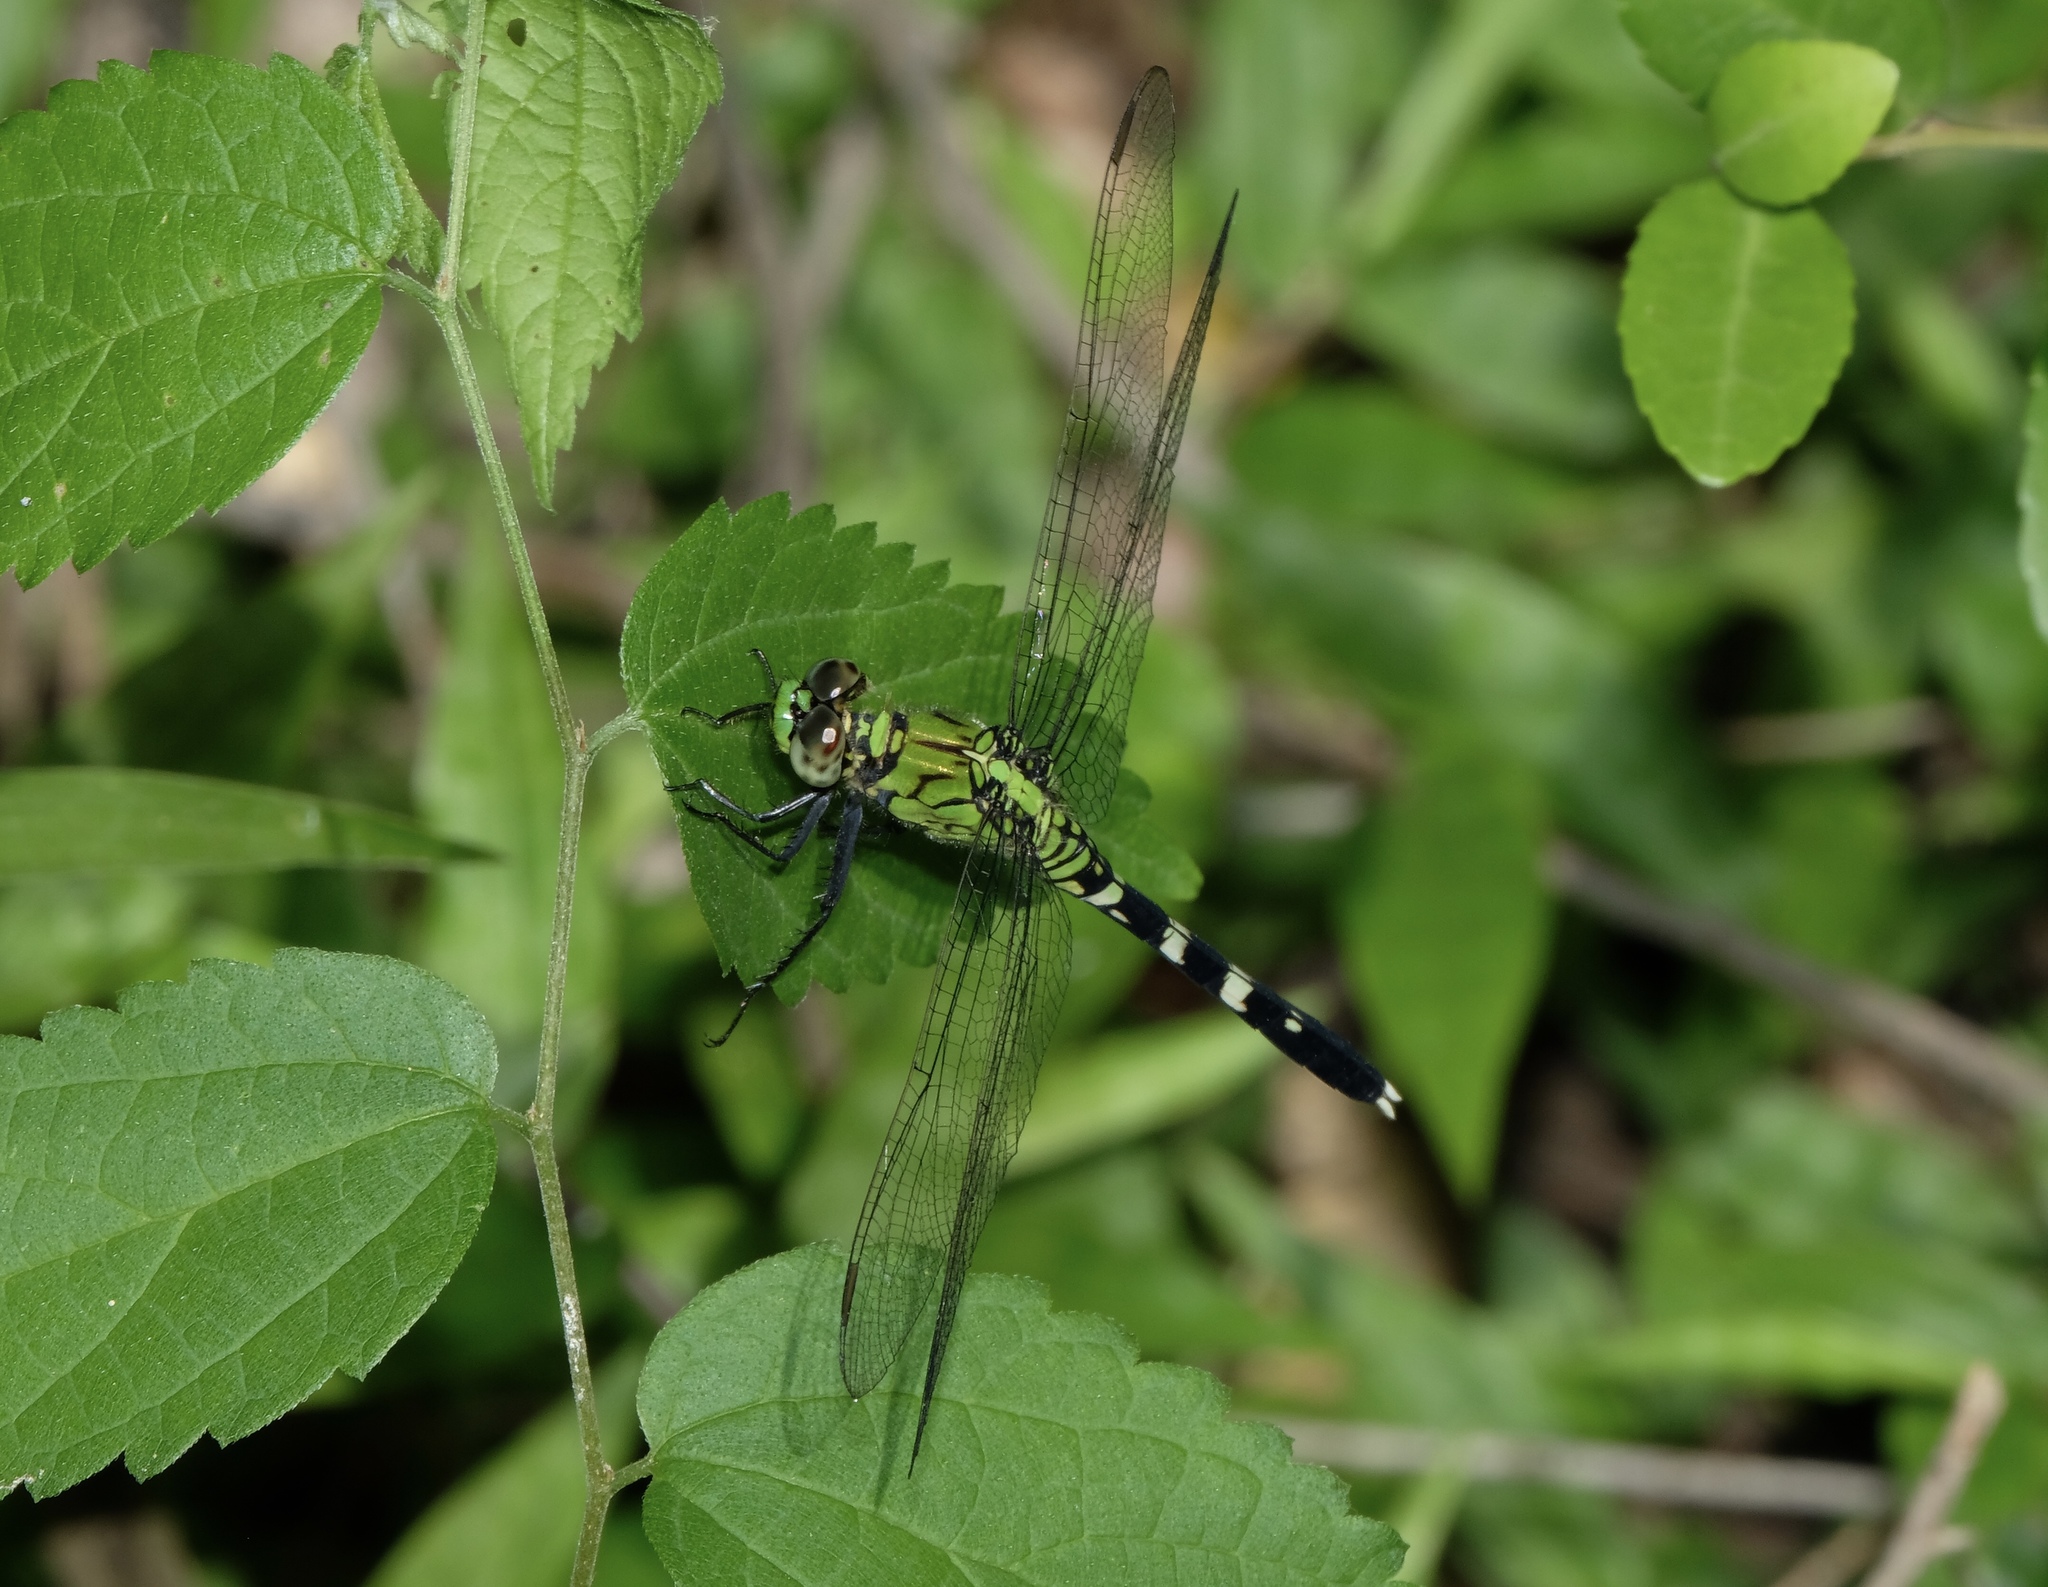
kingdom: Animalia
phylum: Arthropoda
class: Insecta
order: Odonata
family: Libellulidae
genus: Erythemis
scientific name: Erythemis simplicicollis
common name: Eastern pondhawk
